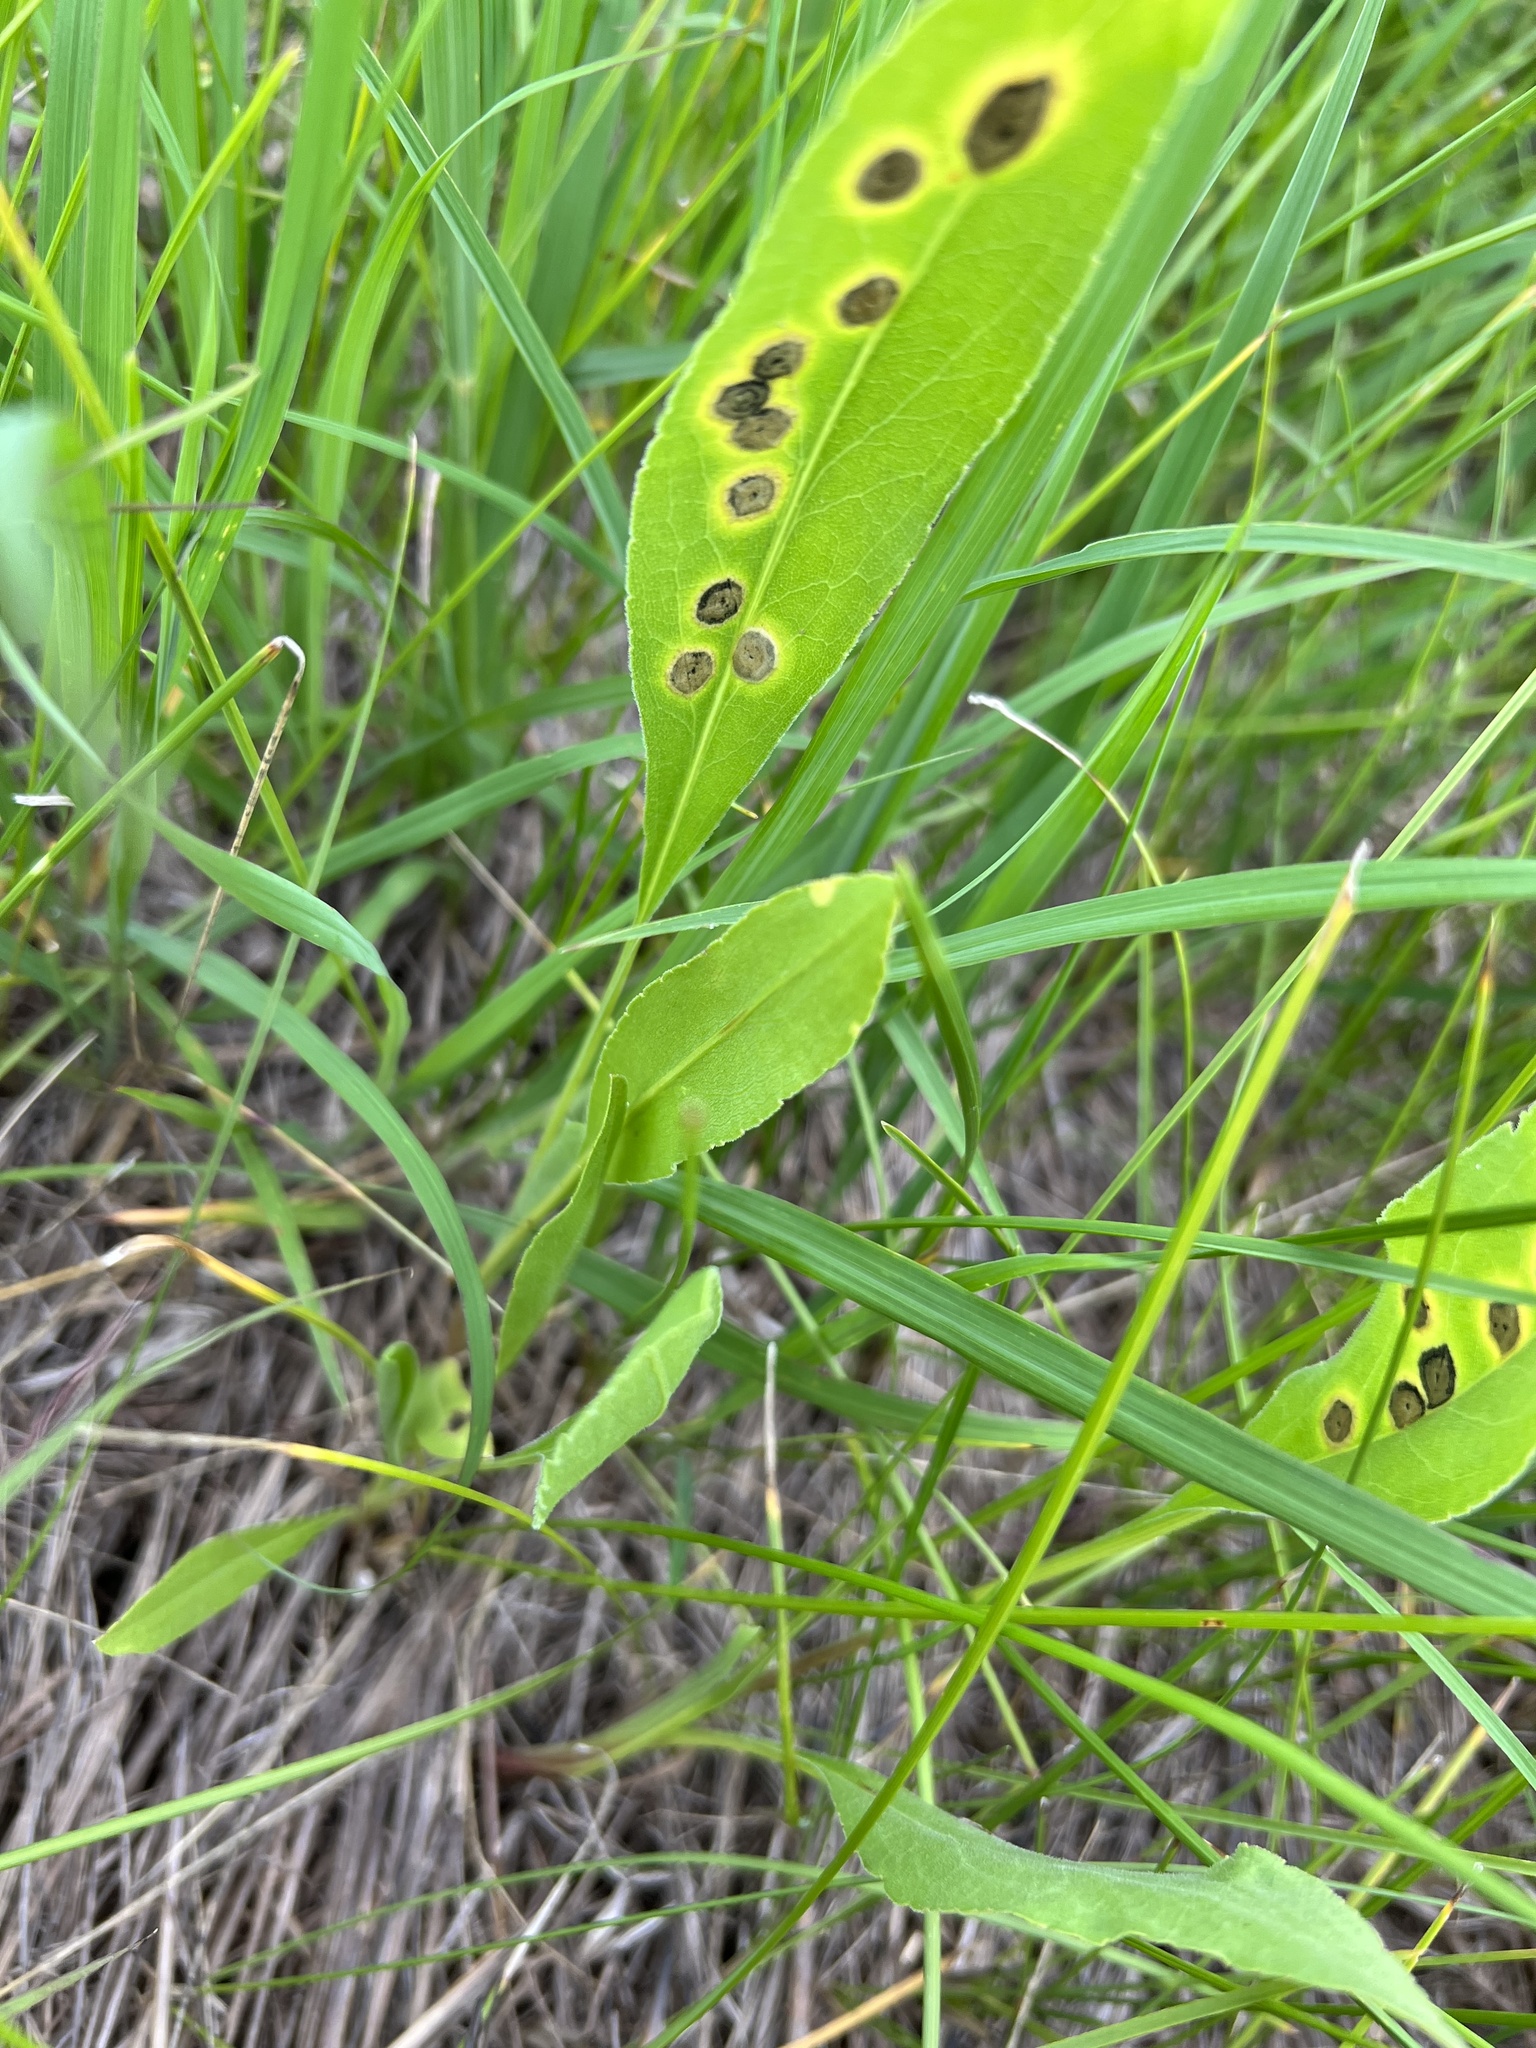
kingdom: Animalia
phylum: Arthropoda
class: Insecta
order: Diptera
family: Cecidomyiidae
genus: Asteromyia
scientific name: Asteromyia carbonifera
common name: Carbonifera goldenrod gall midge
